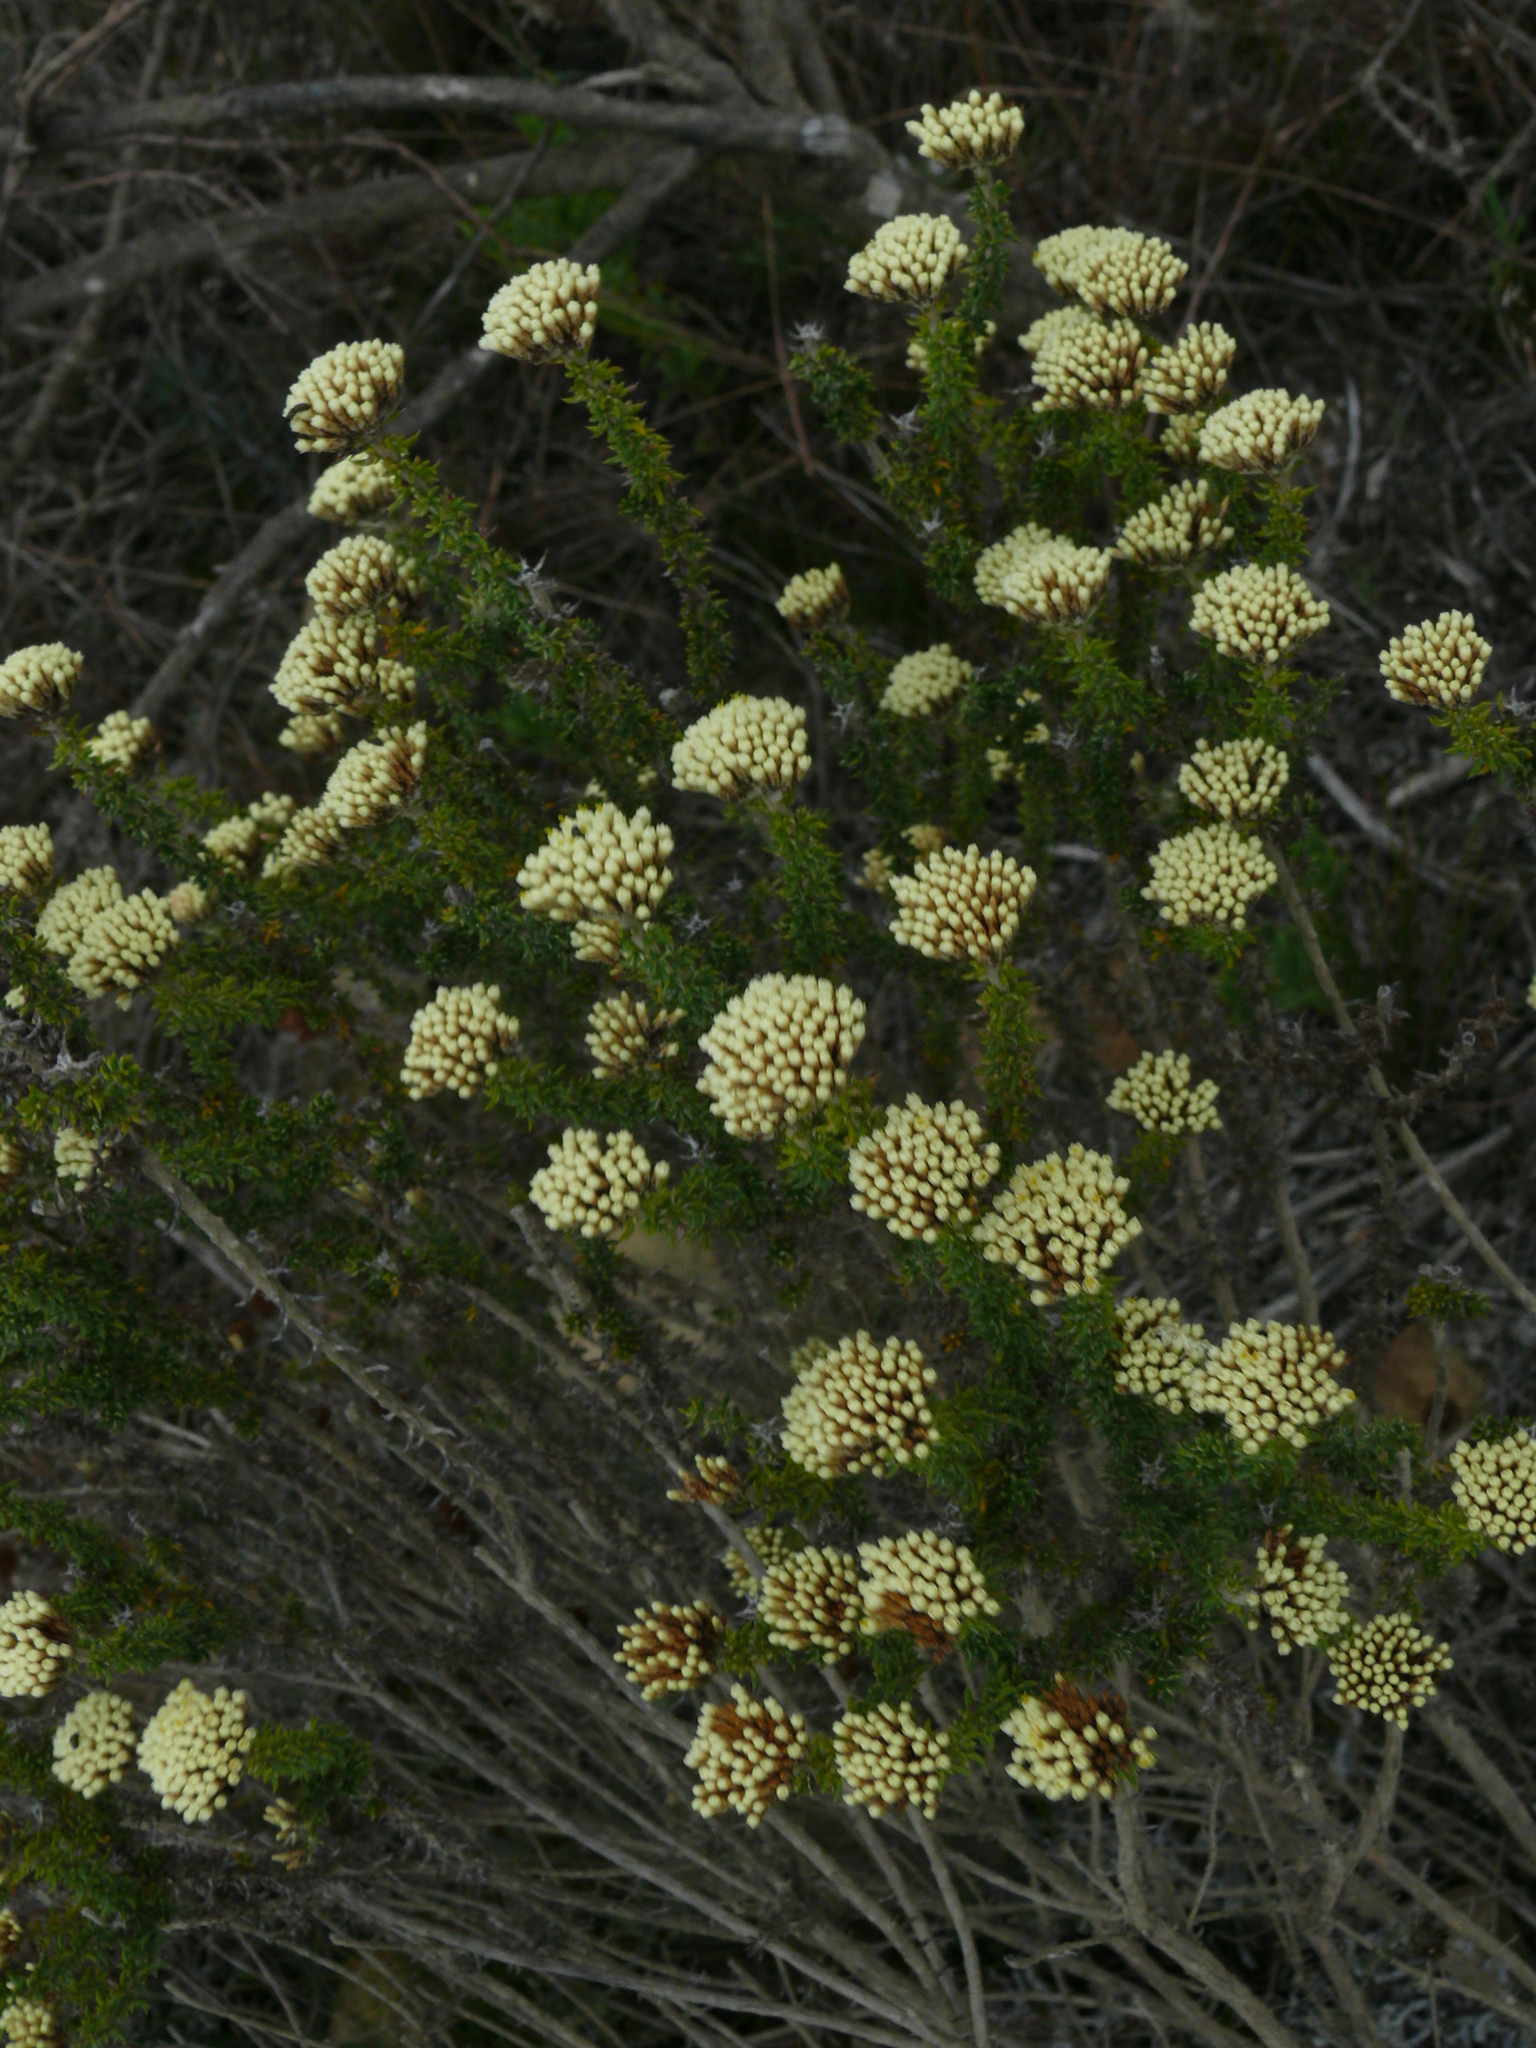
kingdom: Plantae
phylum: Tracheophyta
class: Magnoliopsida
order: Asterales
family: Asteraceae
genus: Metalasia
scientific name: Metalasia luteola
